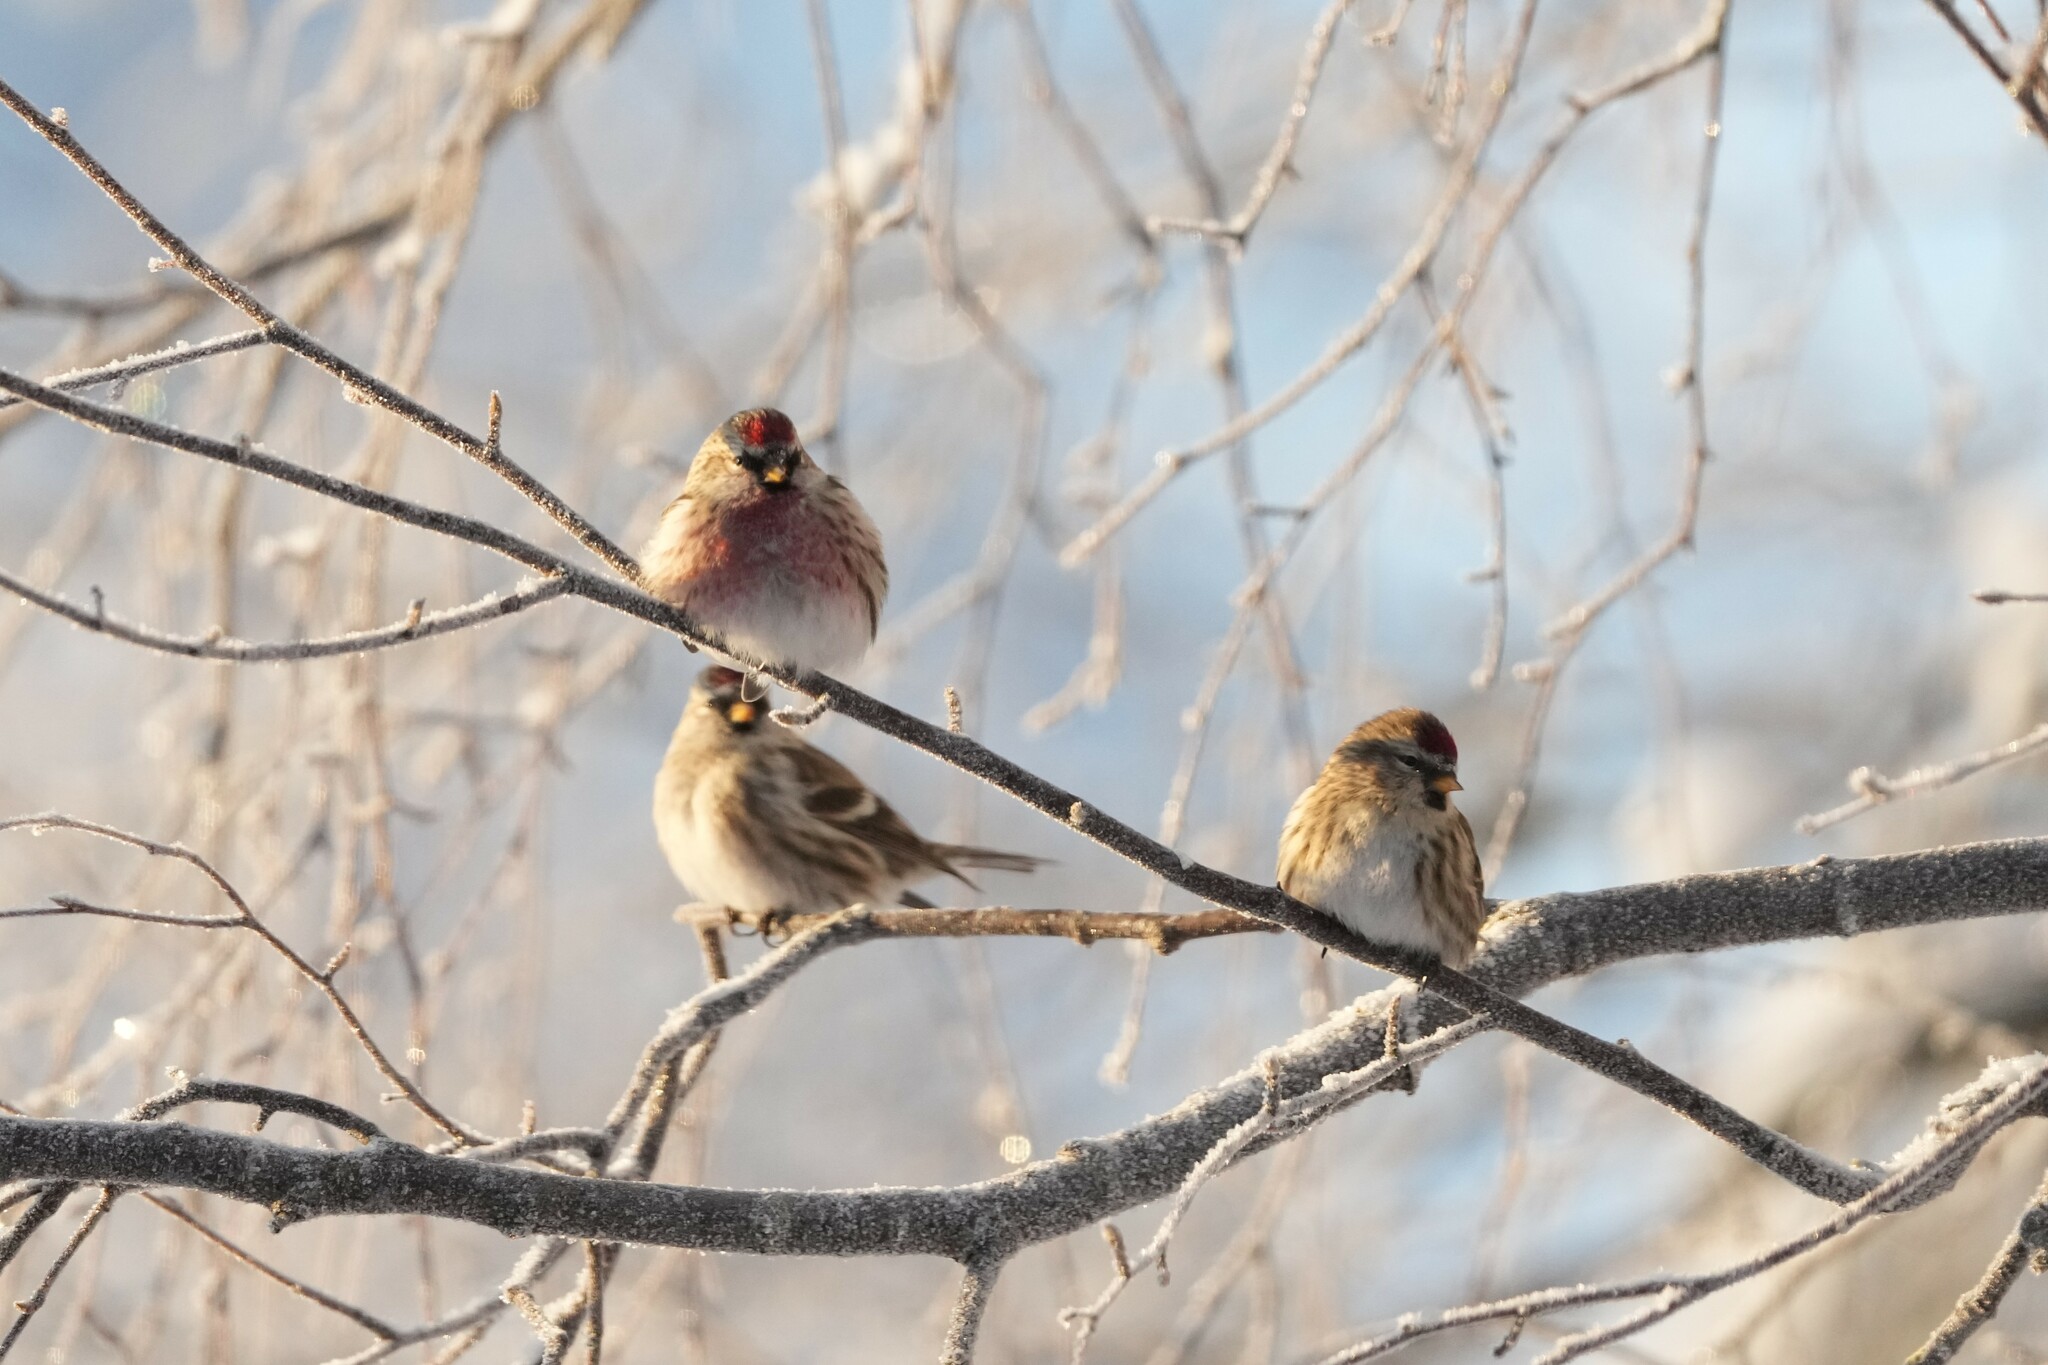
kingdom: Animalia
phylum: Chordata
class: Aves
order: Passeriformes
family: Fringillidae
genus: Acanthis
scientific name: Acanthis flammea
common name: Common redpoll
